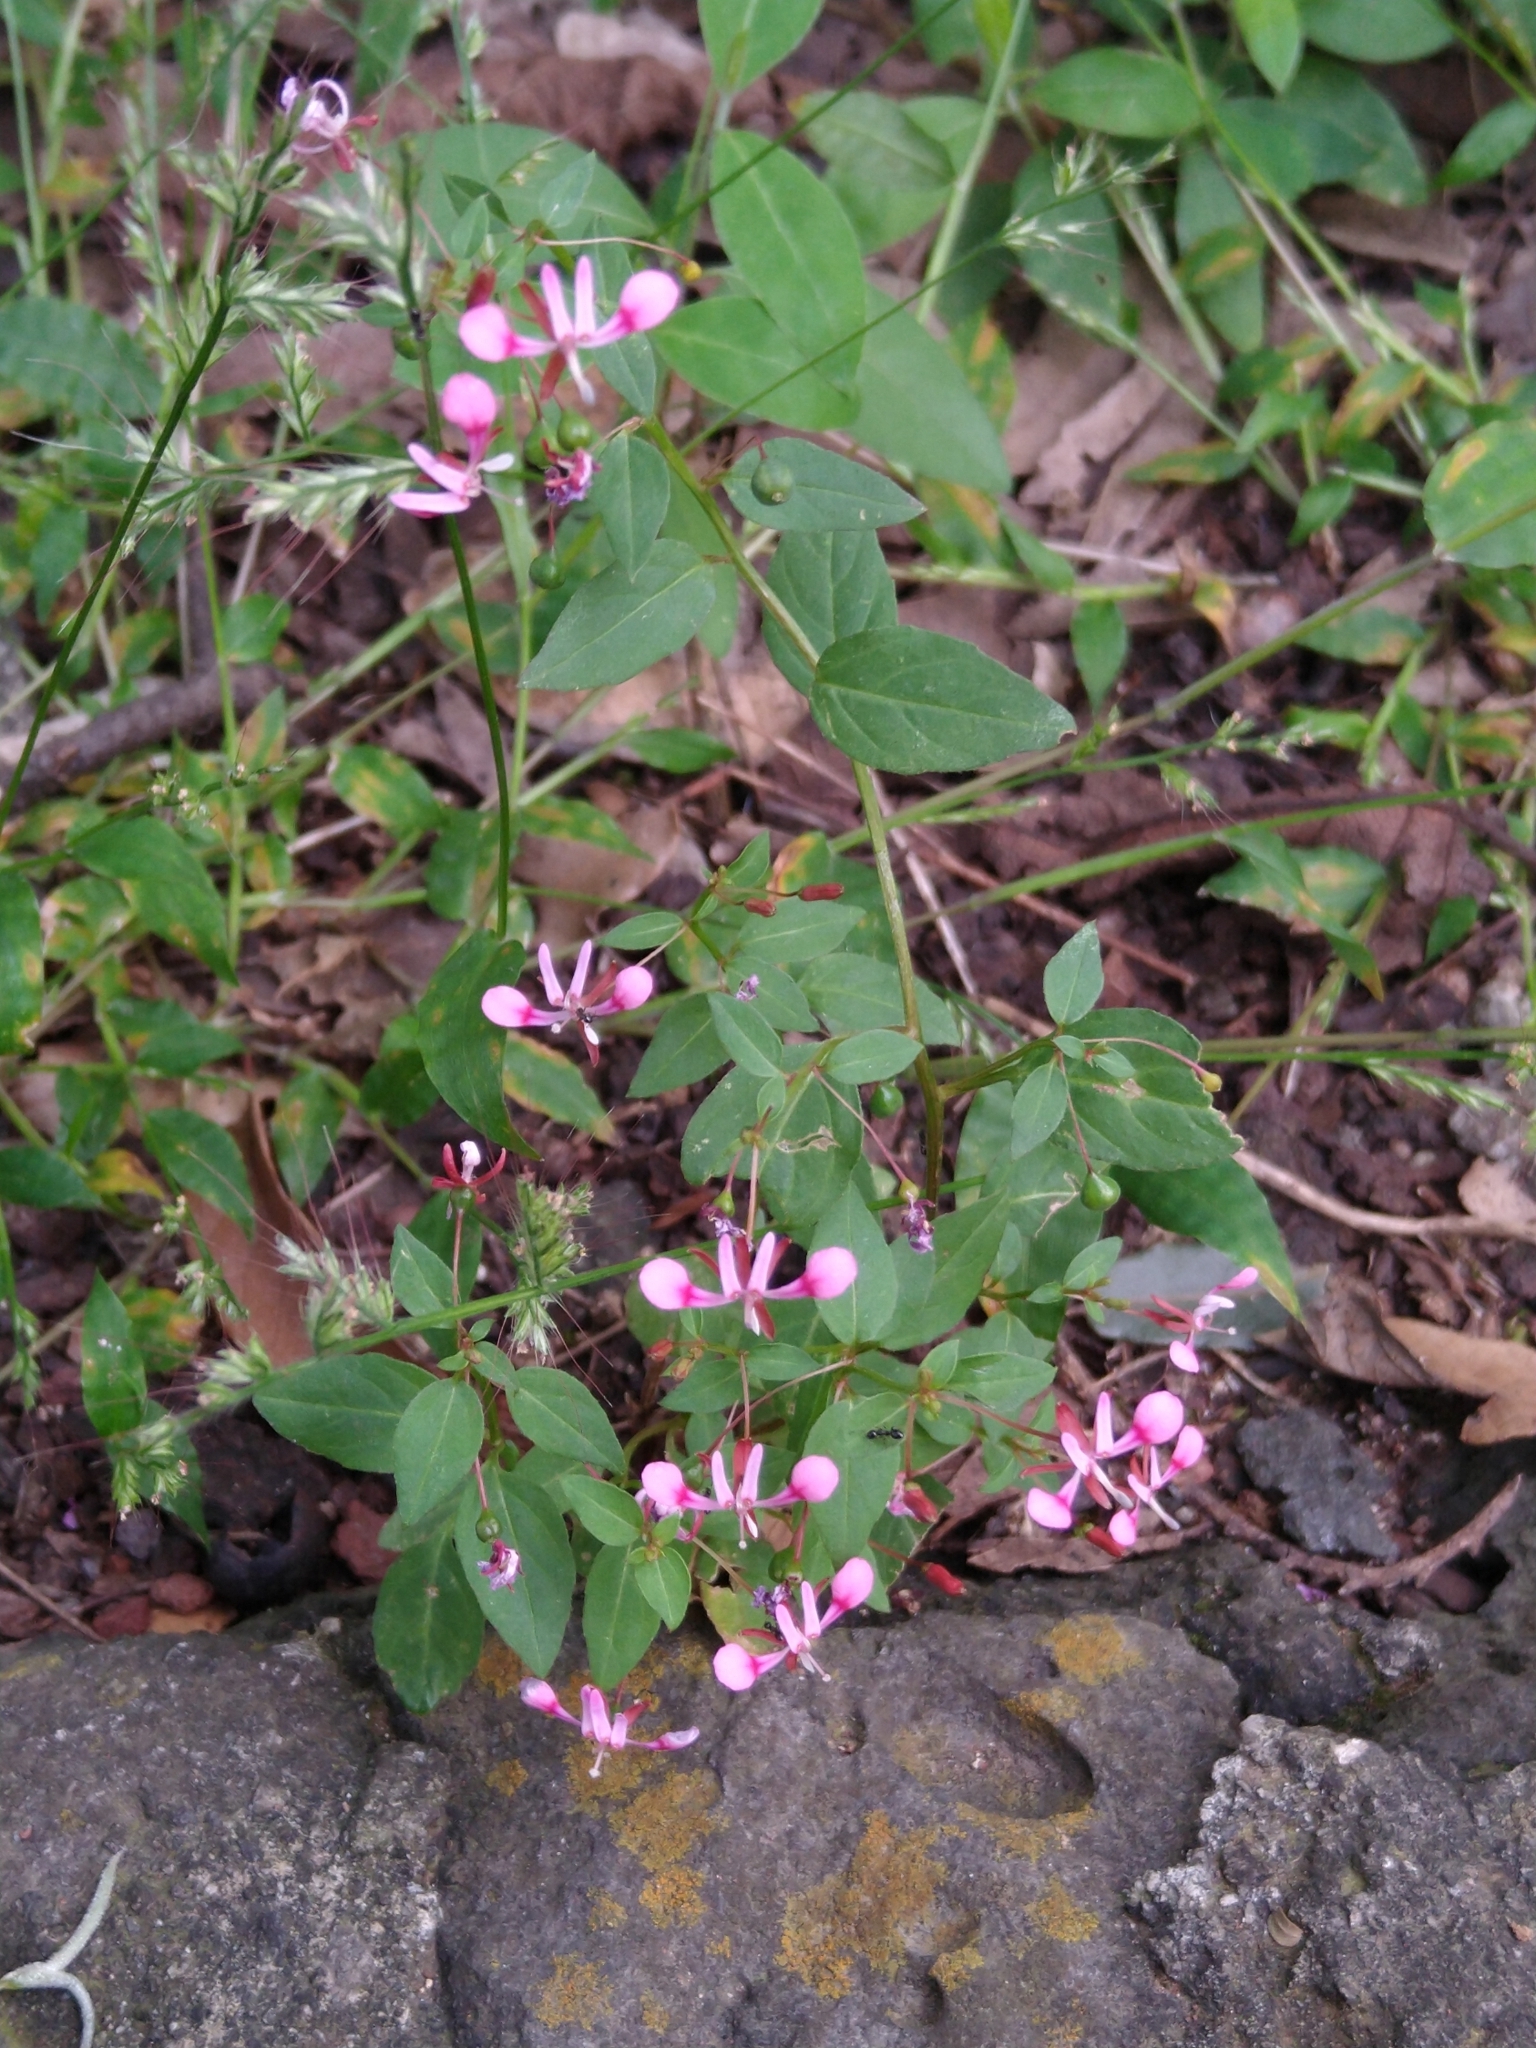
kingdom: Plantae
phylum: Tracheophyta
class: Magnoliopsida
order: Myrtales
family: Onagraceae
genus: Lopezia
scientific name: Lopezia racemosa
